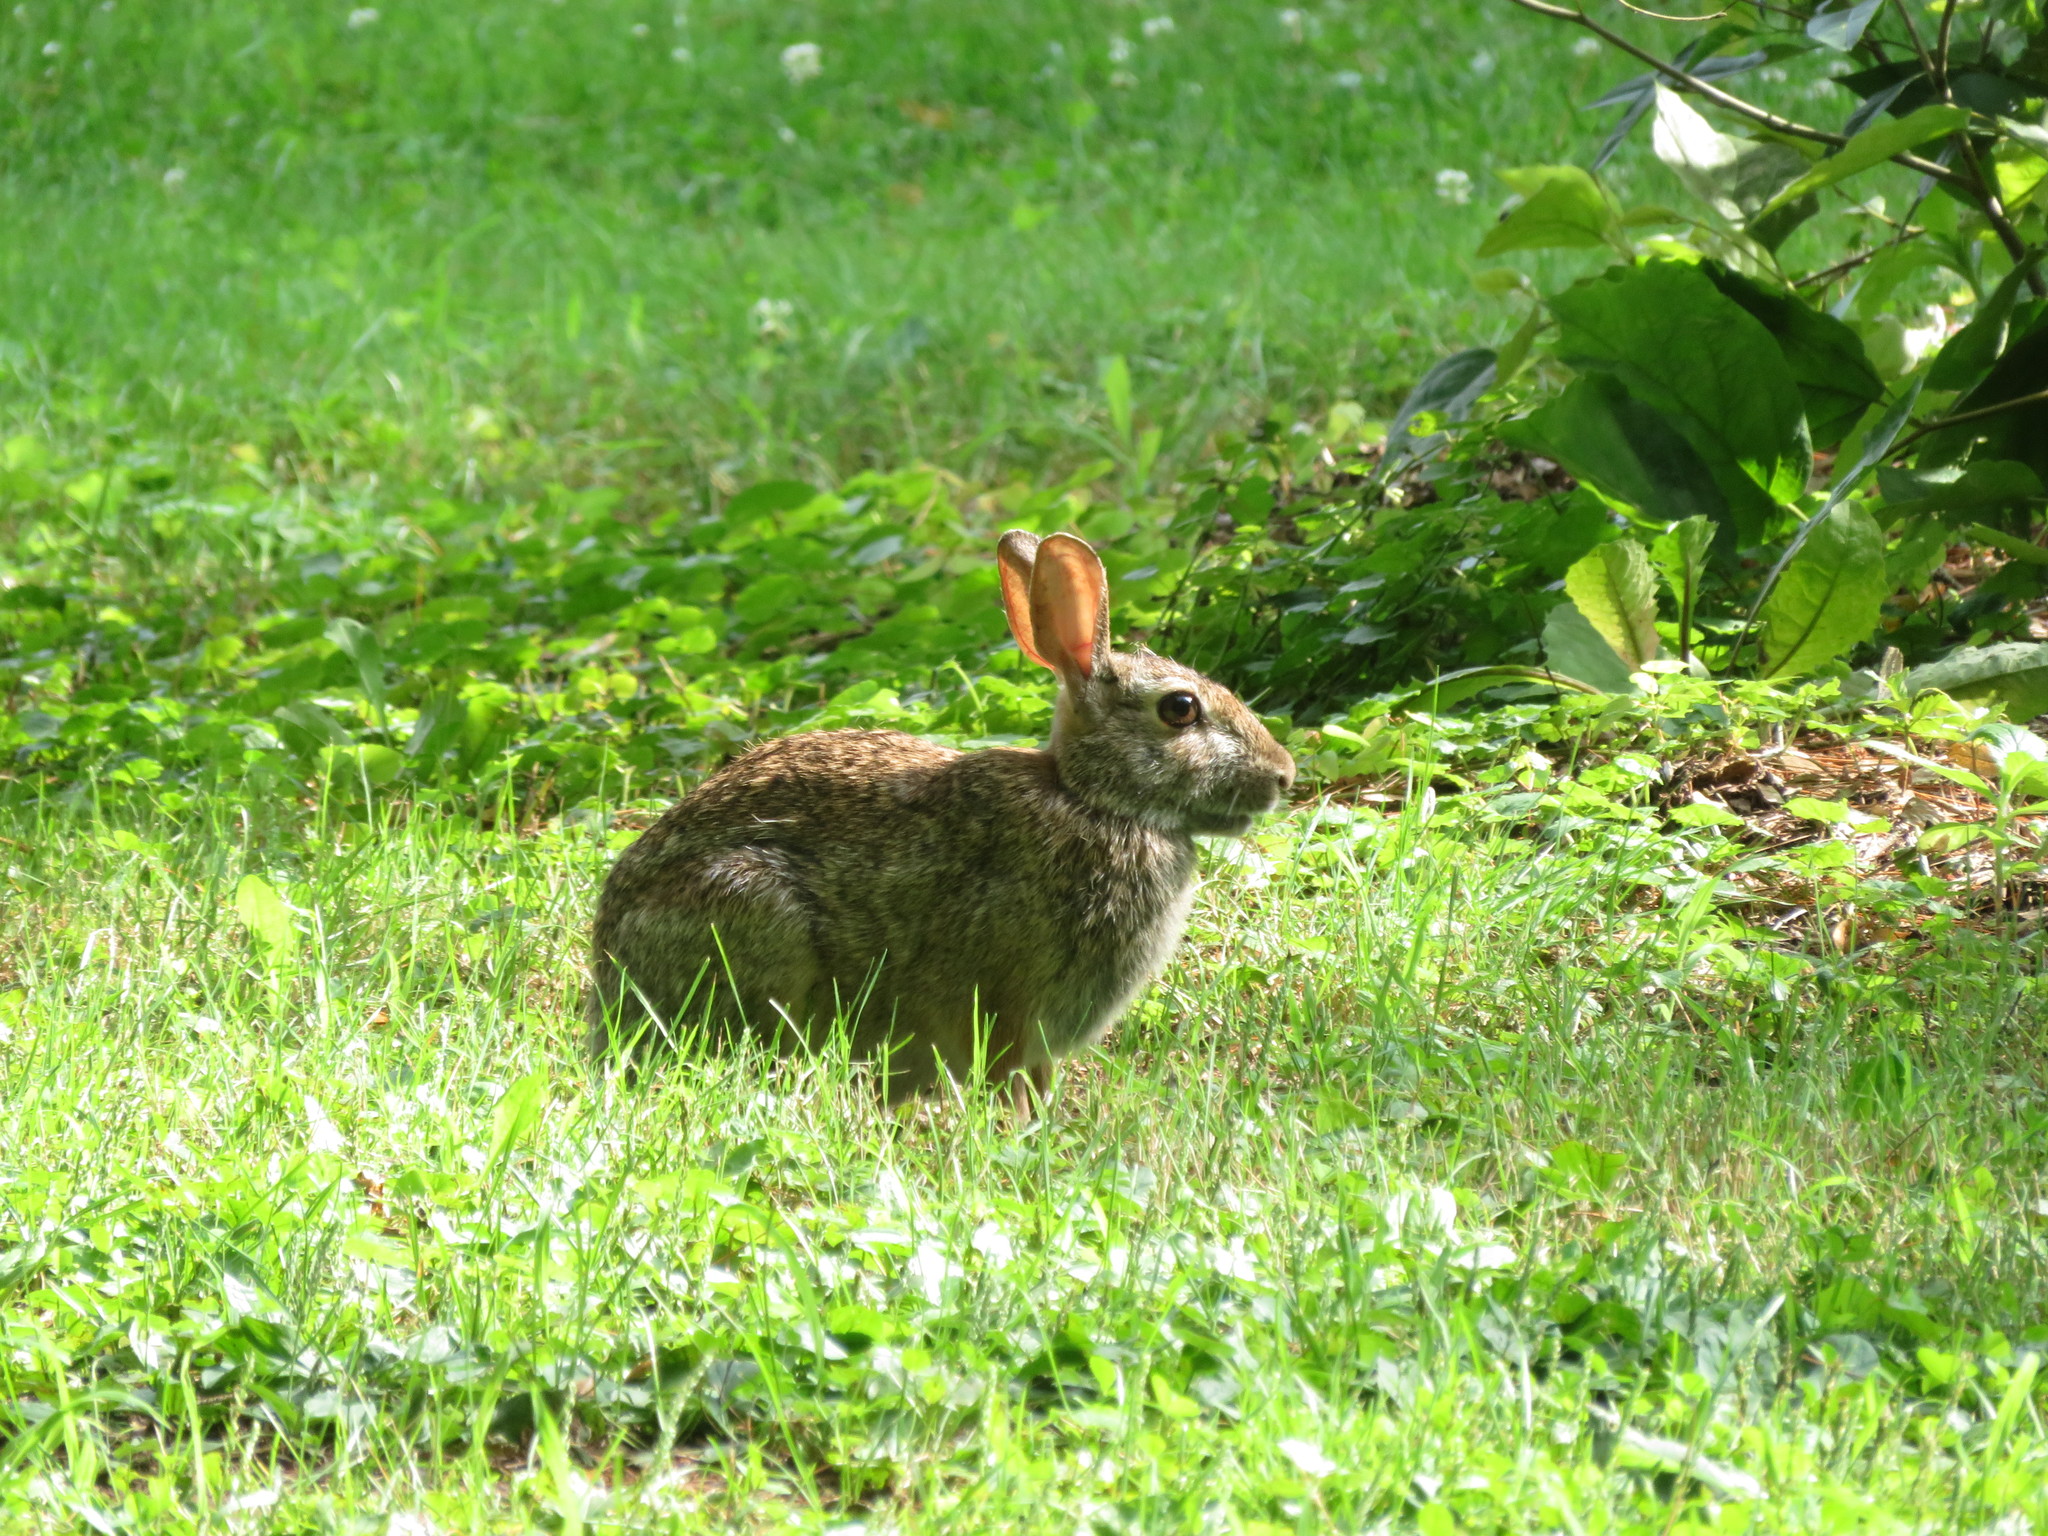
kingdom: Animalia
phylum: Chordata
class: Mammalia
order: Lagomorpha
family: Leporidae
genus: Sylvilagus
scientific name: Sylvilagus floridanus
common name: Eastern cottontail
